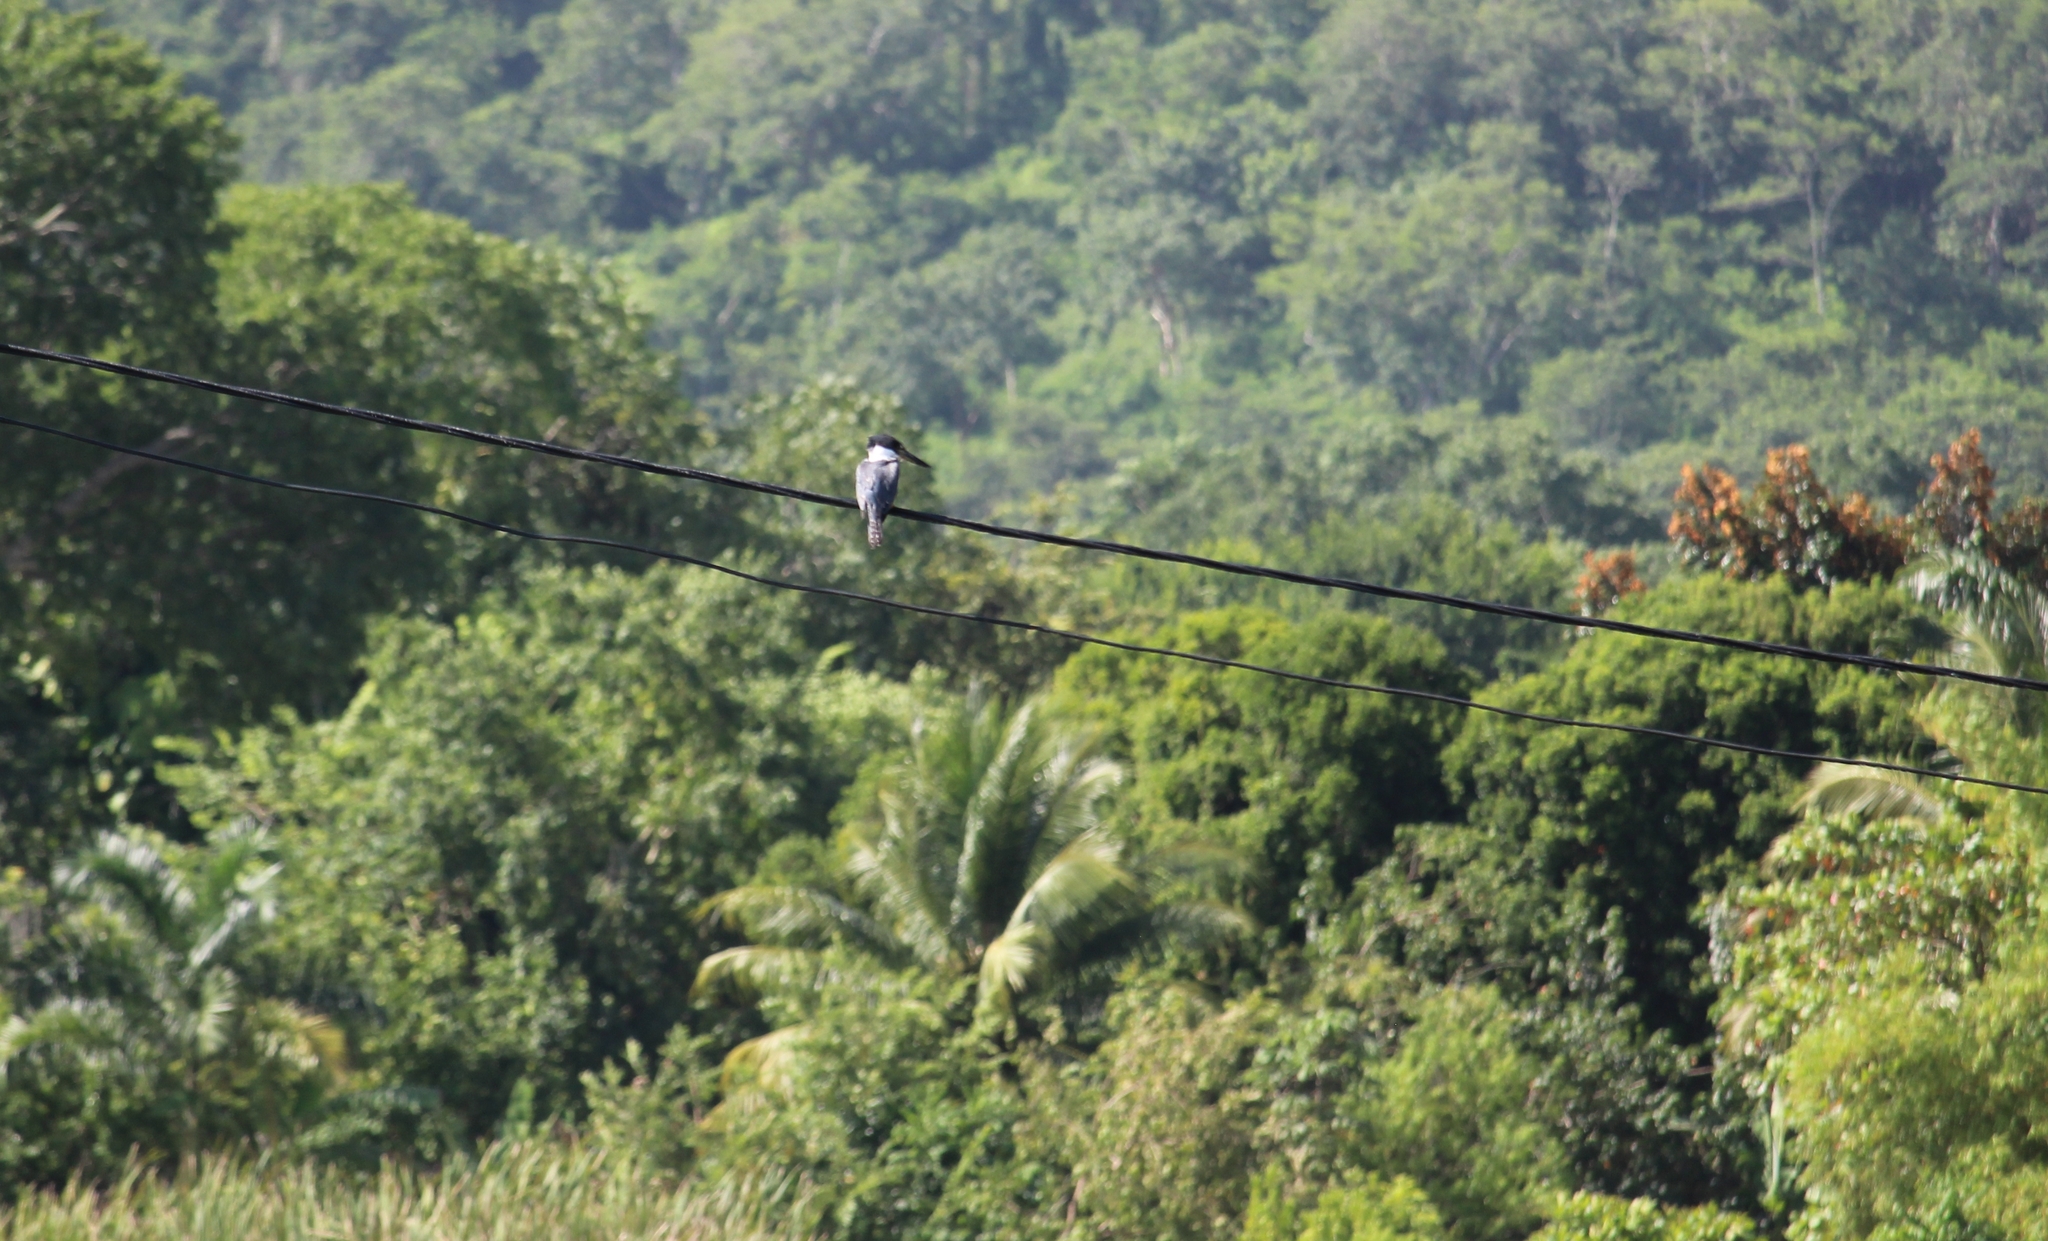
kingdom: Animalia
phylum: Chordata
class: Aves
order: Coraciiformes
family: Alcedinidae
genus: Megaceryle
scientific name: Megaceryle torquata
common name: Ringed kingfisher
